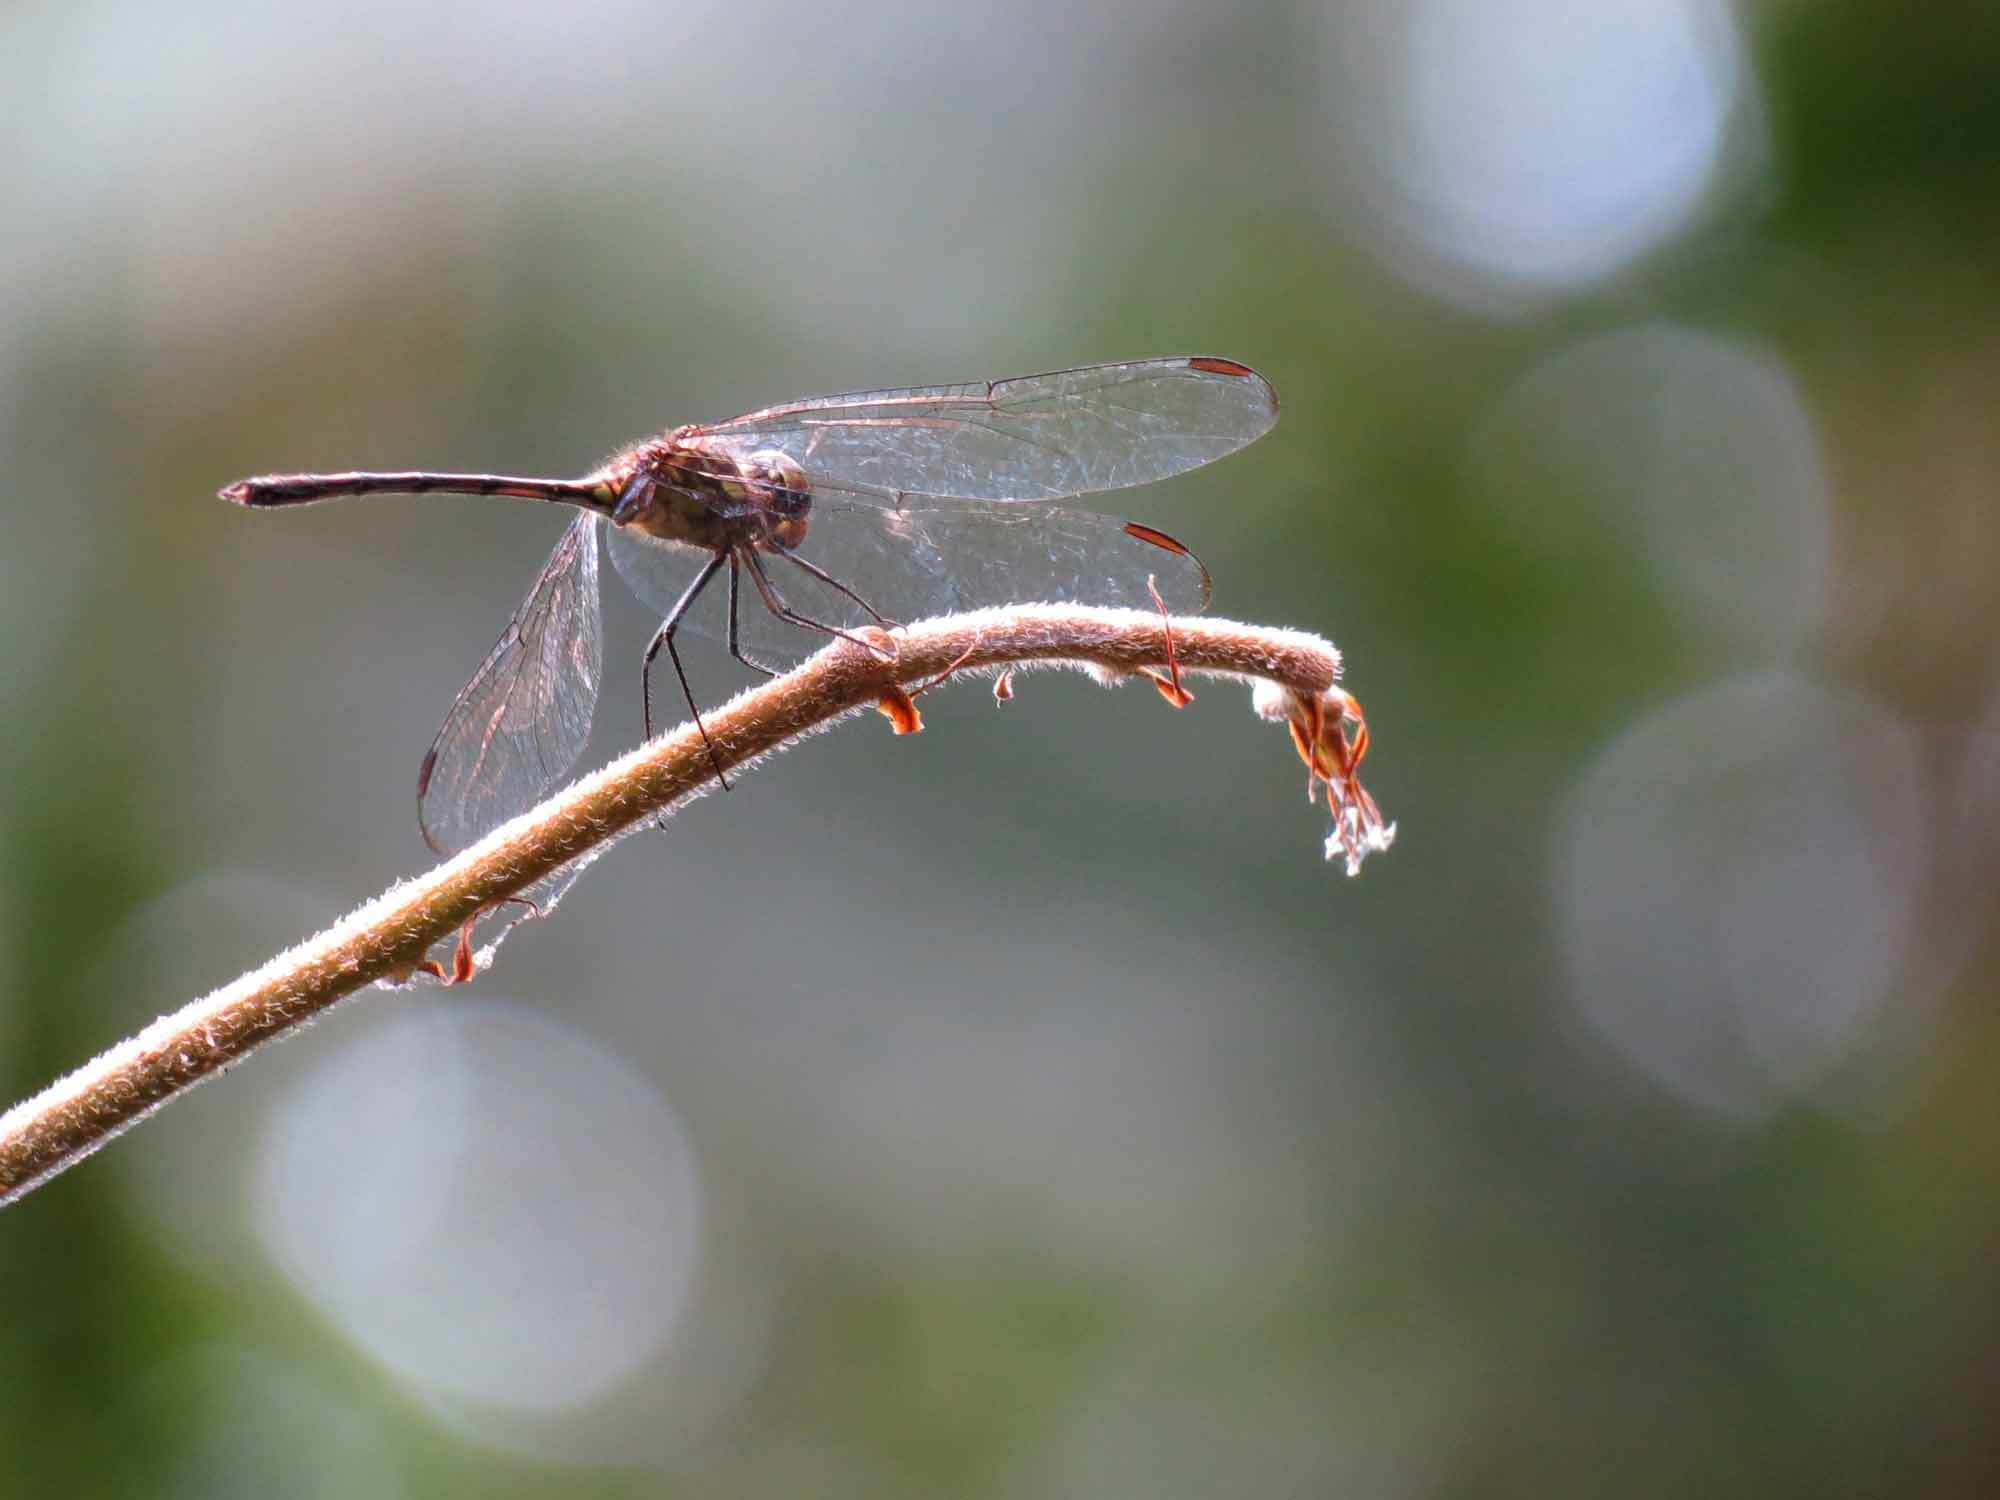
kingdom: Animalia
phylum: Arthropoda
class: Insecta
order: Odonata
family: Libellulidae
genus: Dythemis
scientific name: Dythemis sterilis
